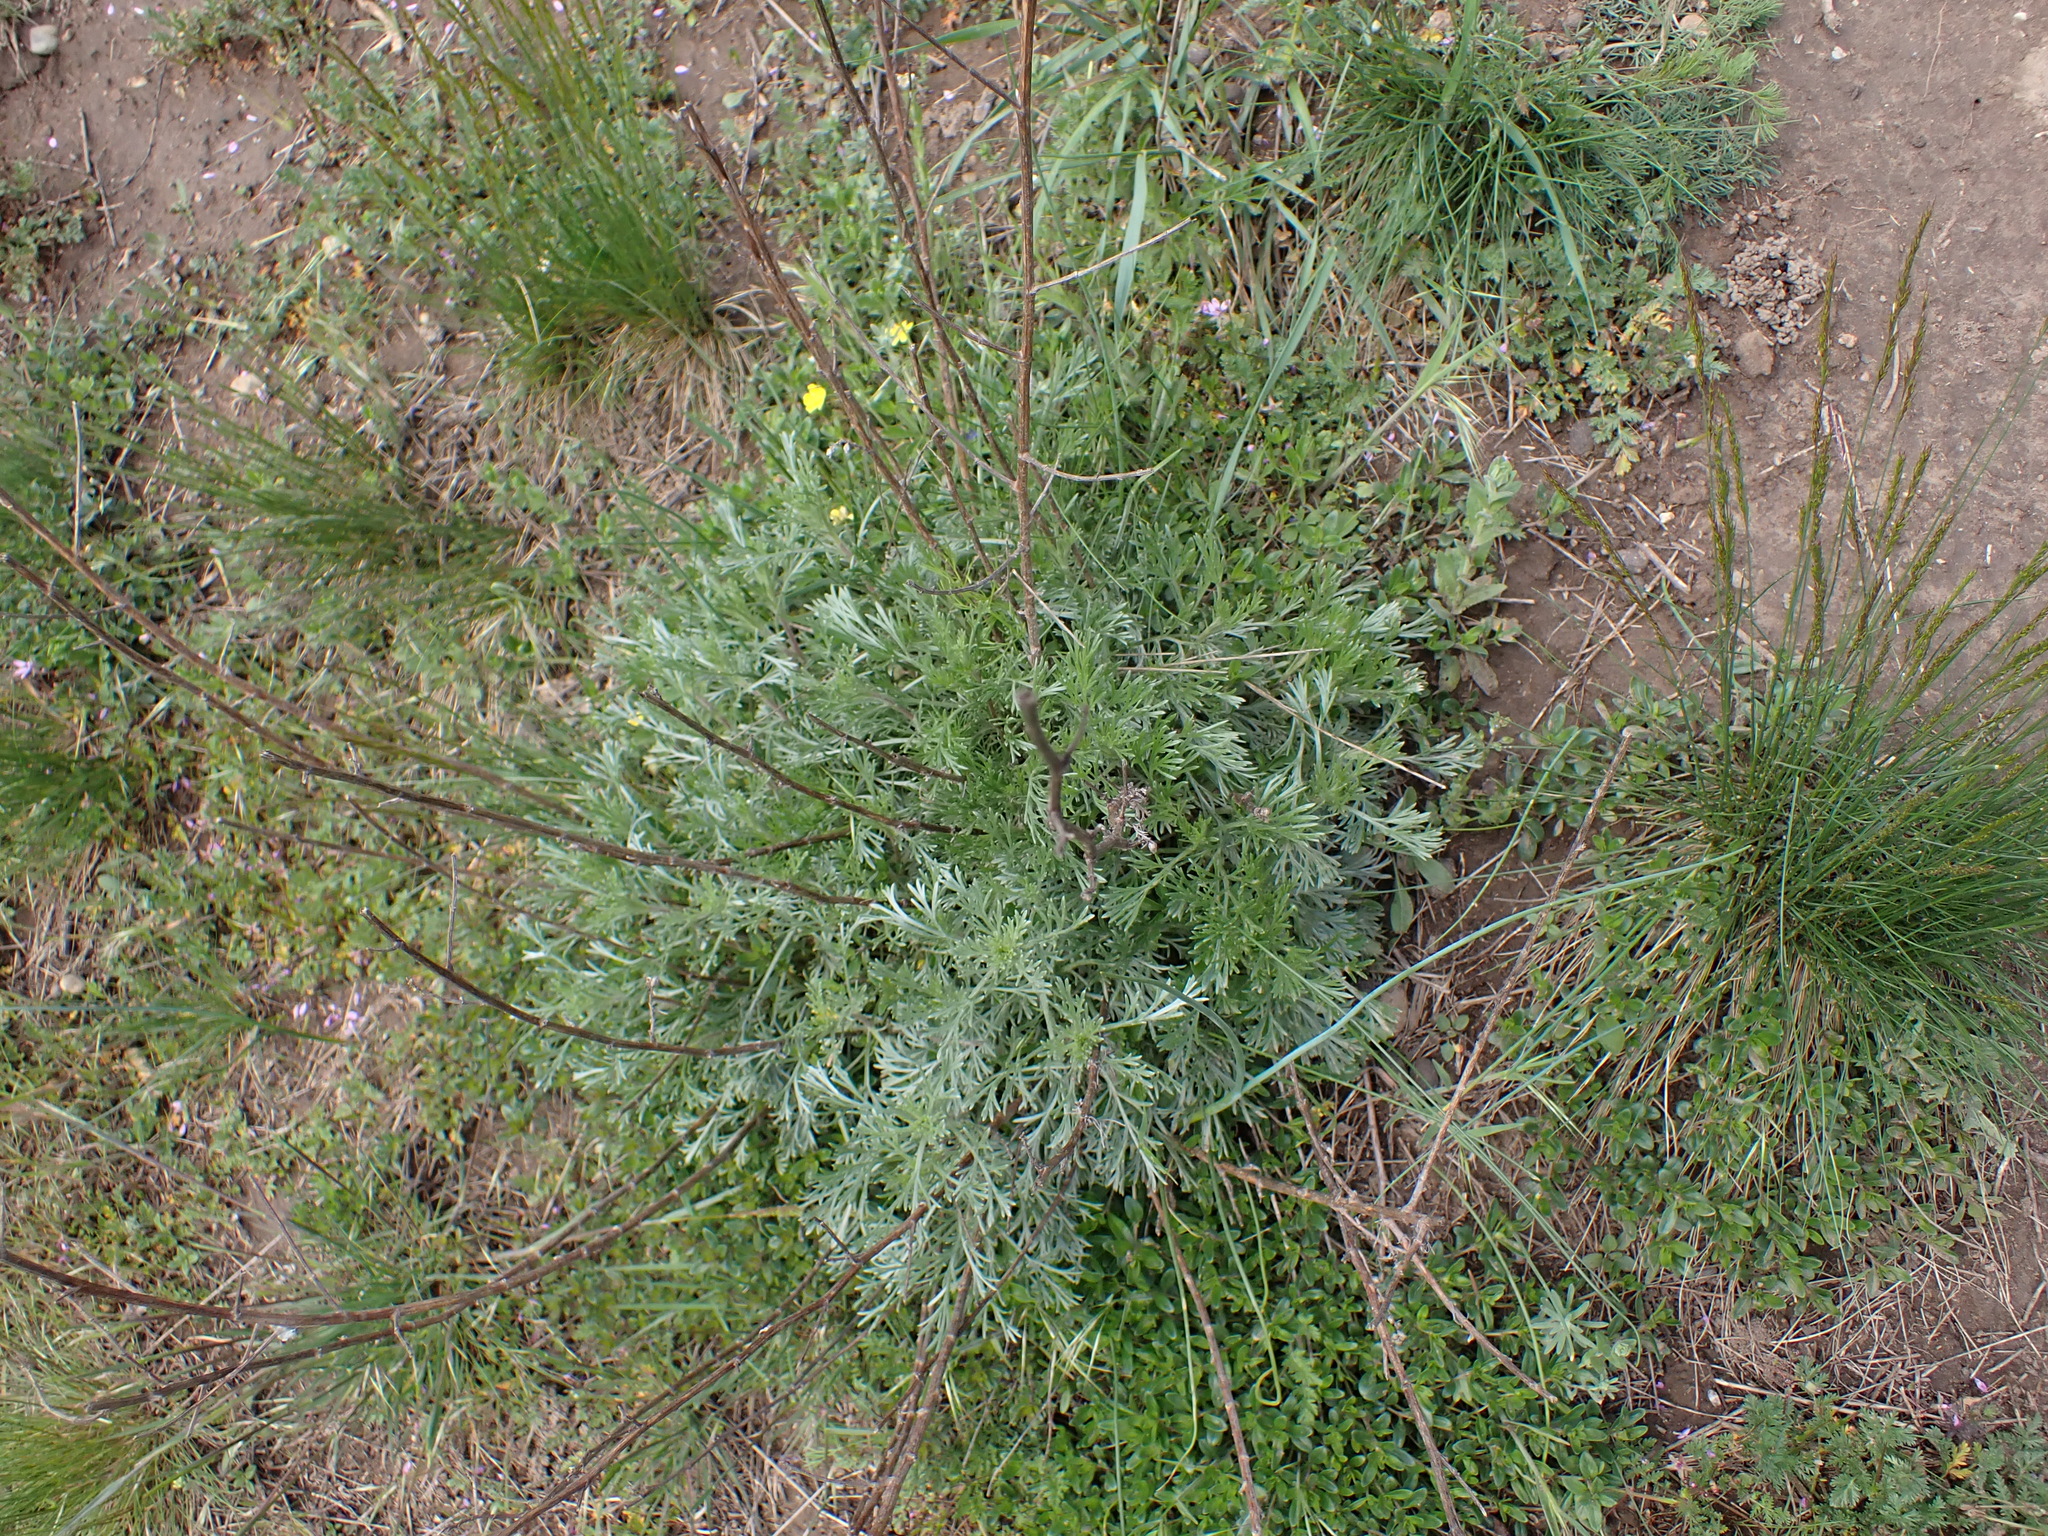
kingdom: Plantae
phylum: Tracheophyta
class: Magnoliopsida
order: Asterales
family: Asteraceae
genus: Artemisia
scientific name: Artemisia campestris
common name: Field wormwood
